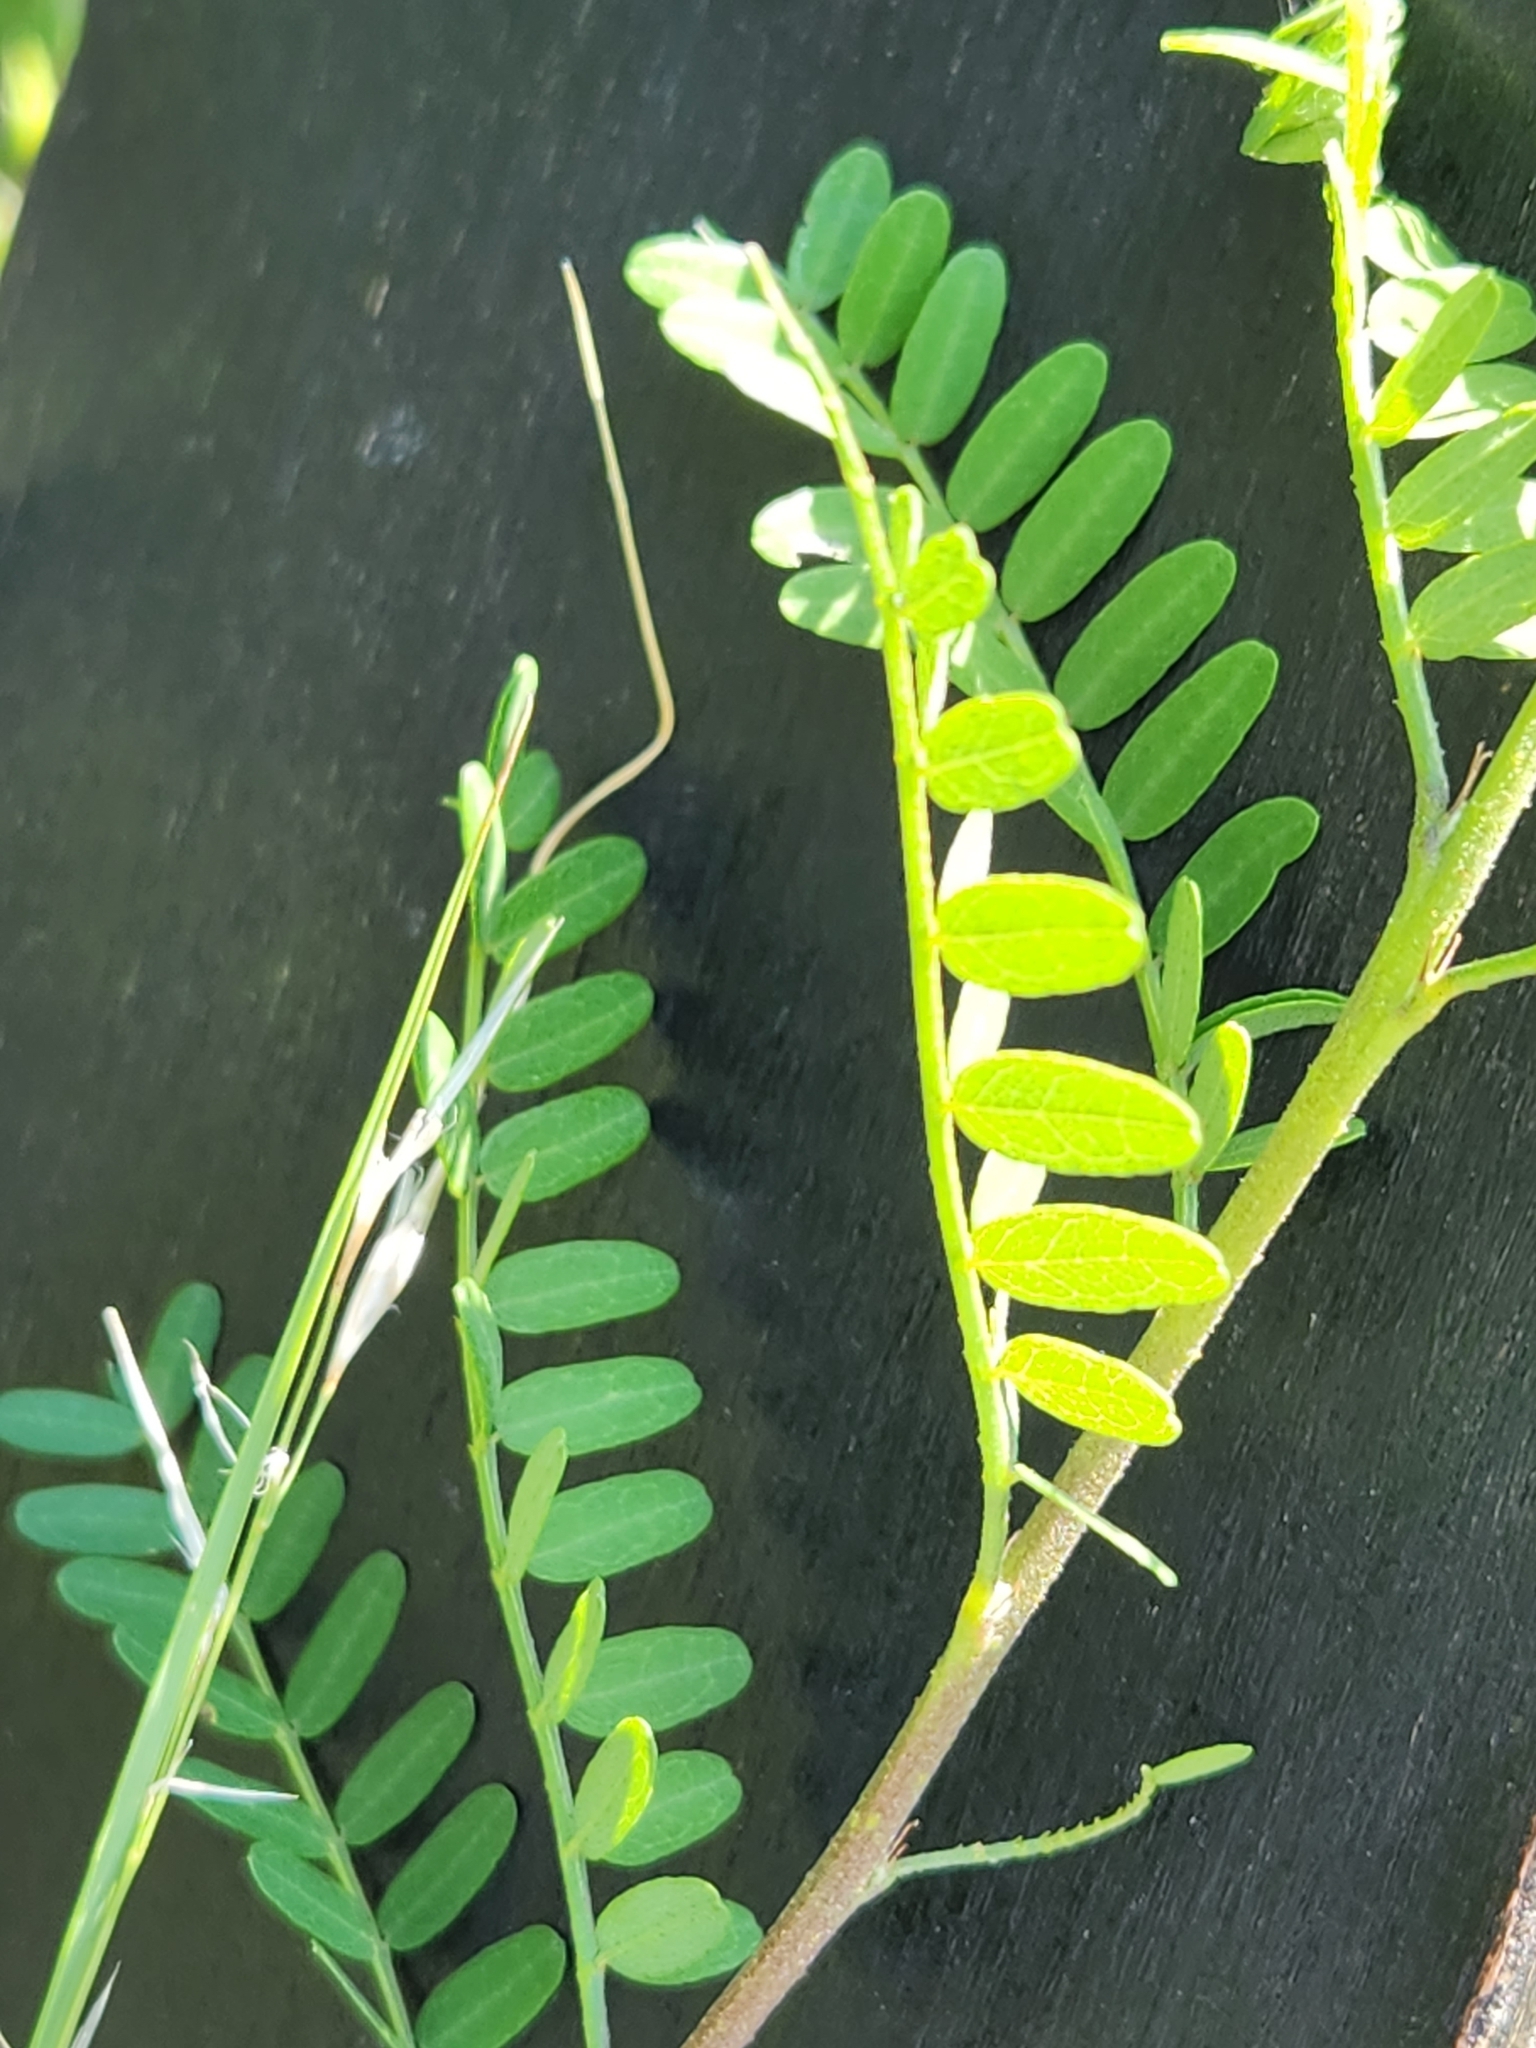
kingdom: Plantae
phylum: Tracheophyta
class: Magnoliopsida
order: Fabales
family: Fabaceae
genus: Eysenhardtia
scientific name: Eysenhardtia texana
